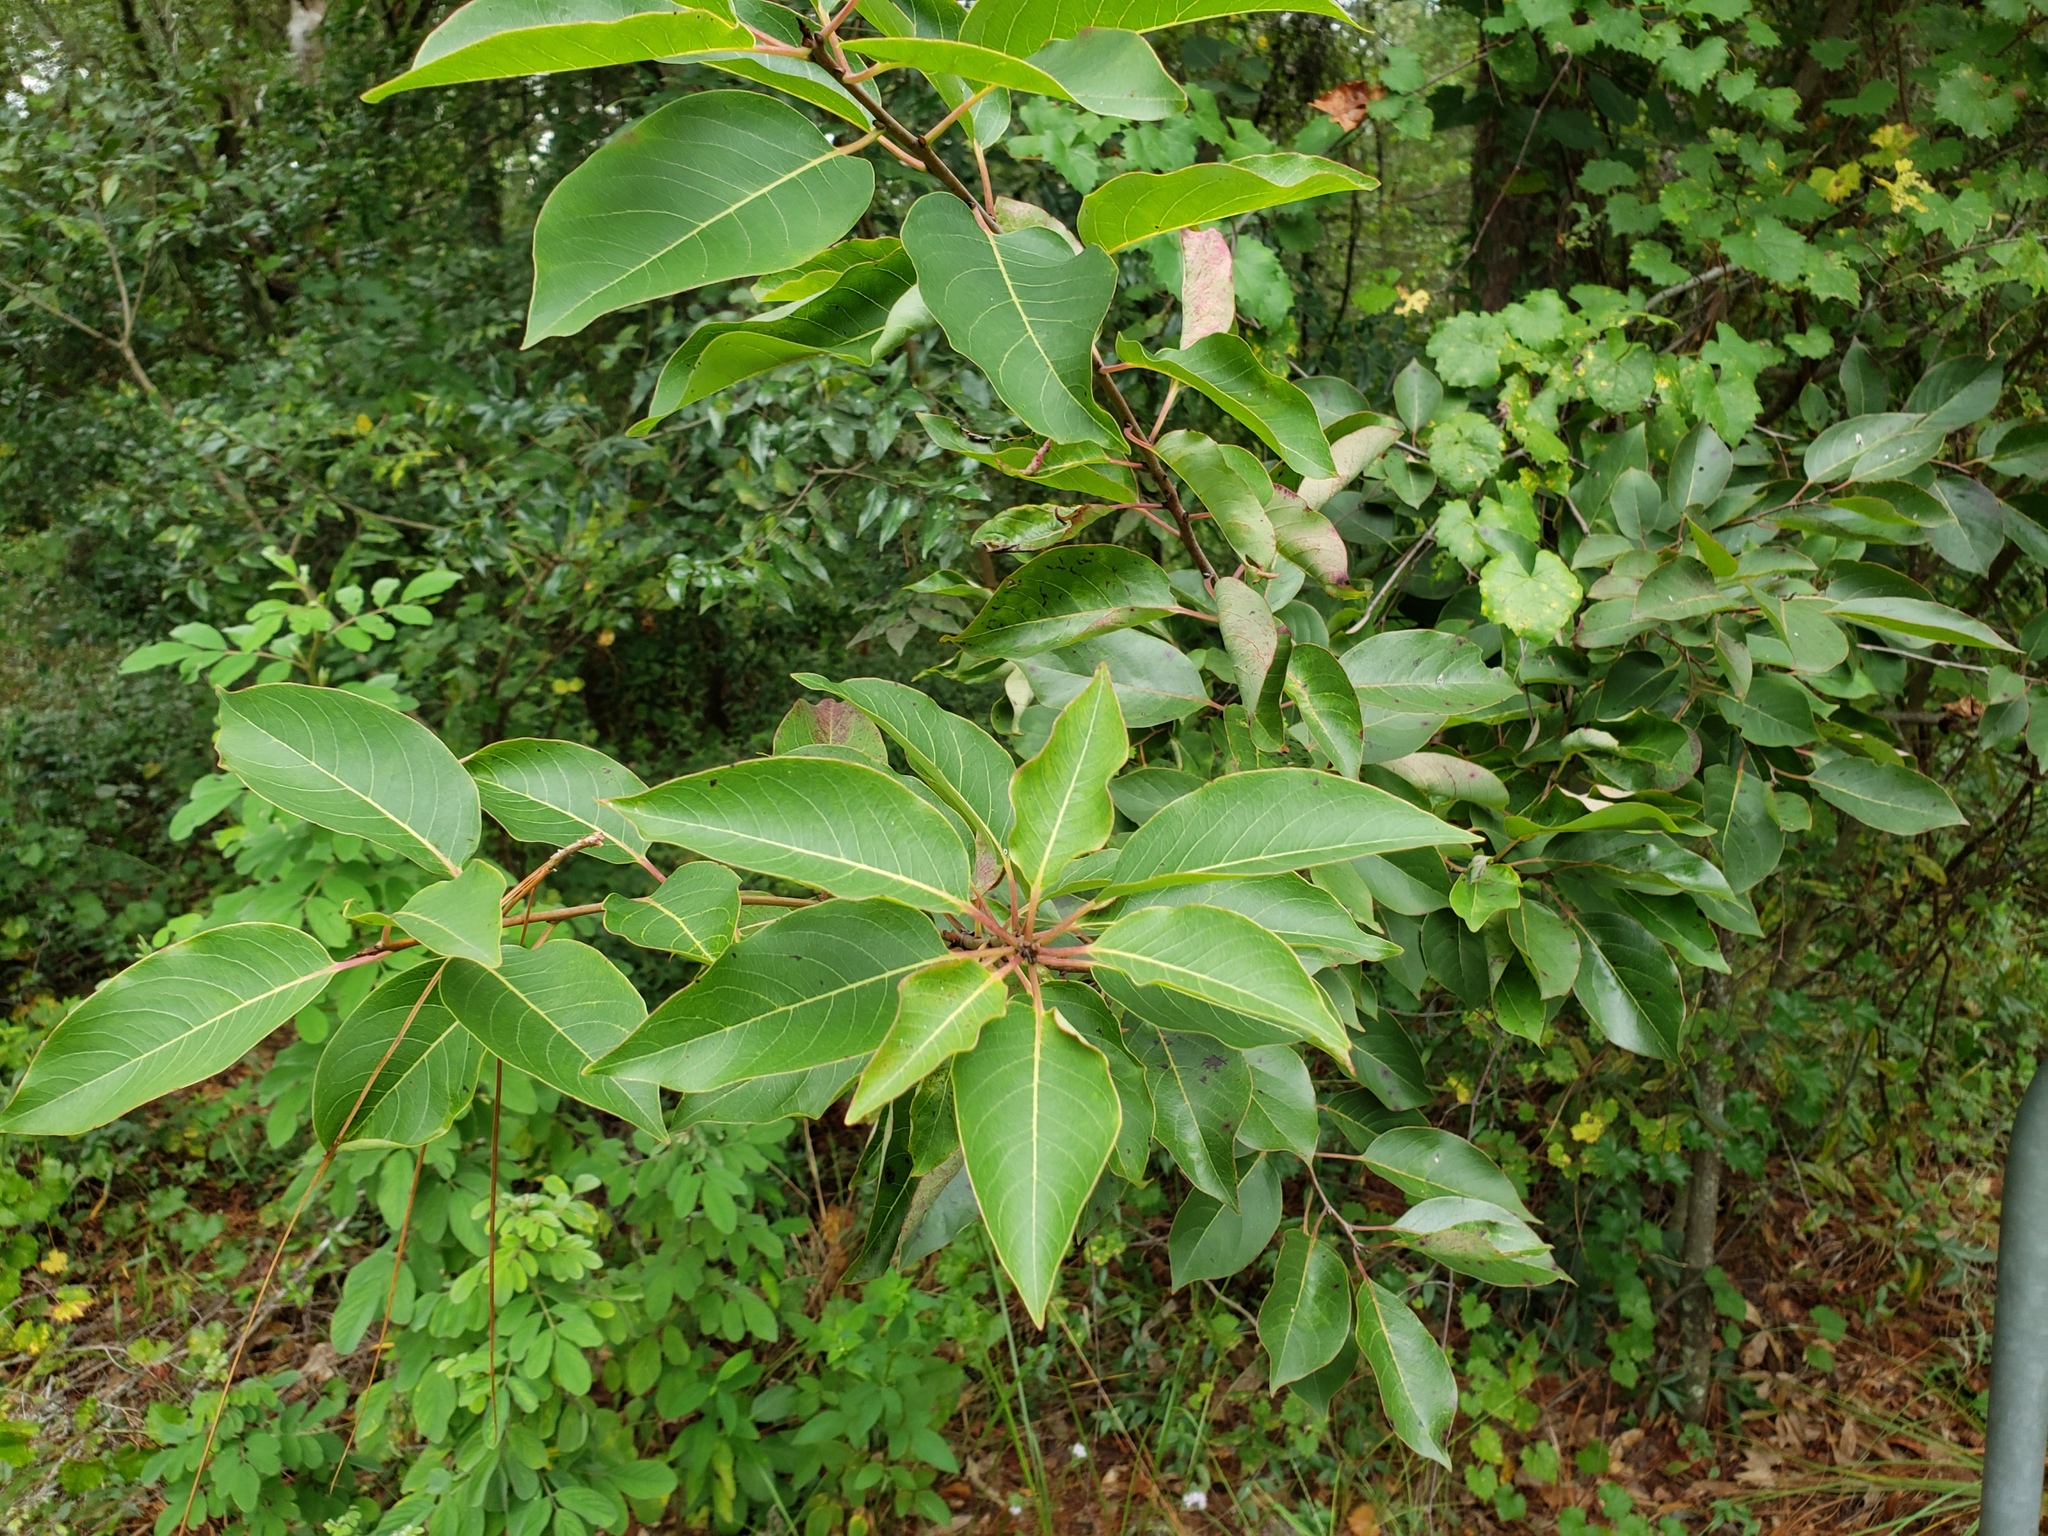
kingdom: Plantae
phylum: Tracheophyta
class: Magnoliopsida
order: Ericales
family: Ebenaceae
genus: Diospyros
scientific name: Diospyros virginiana
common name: Persimmon
